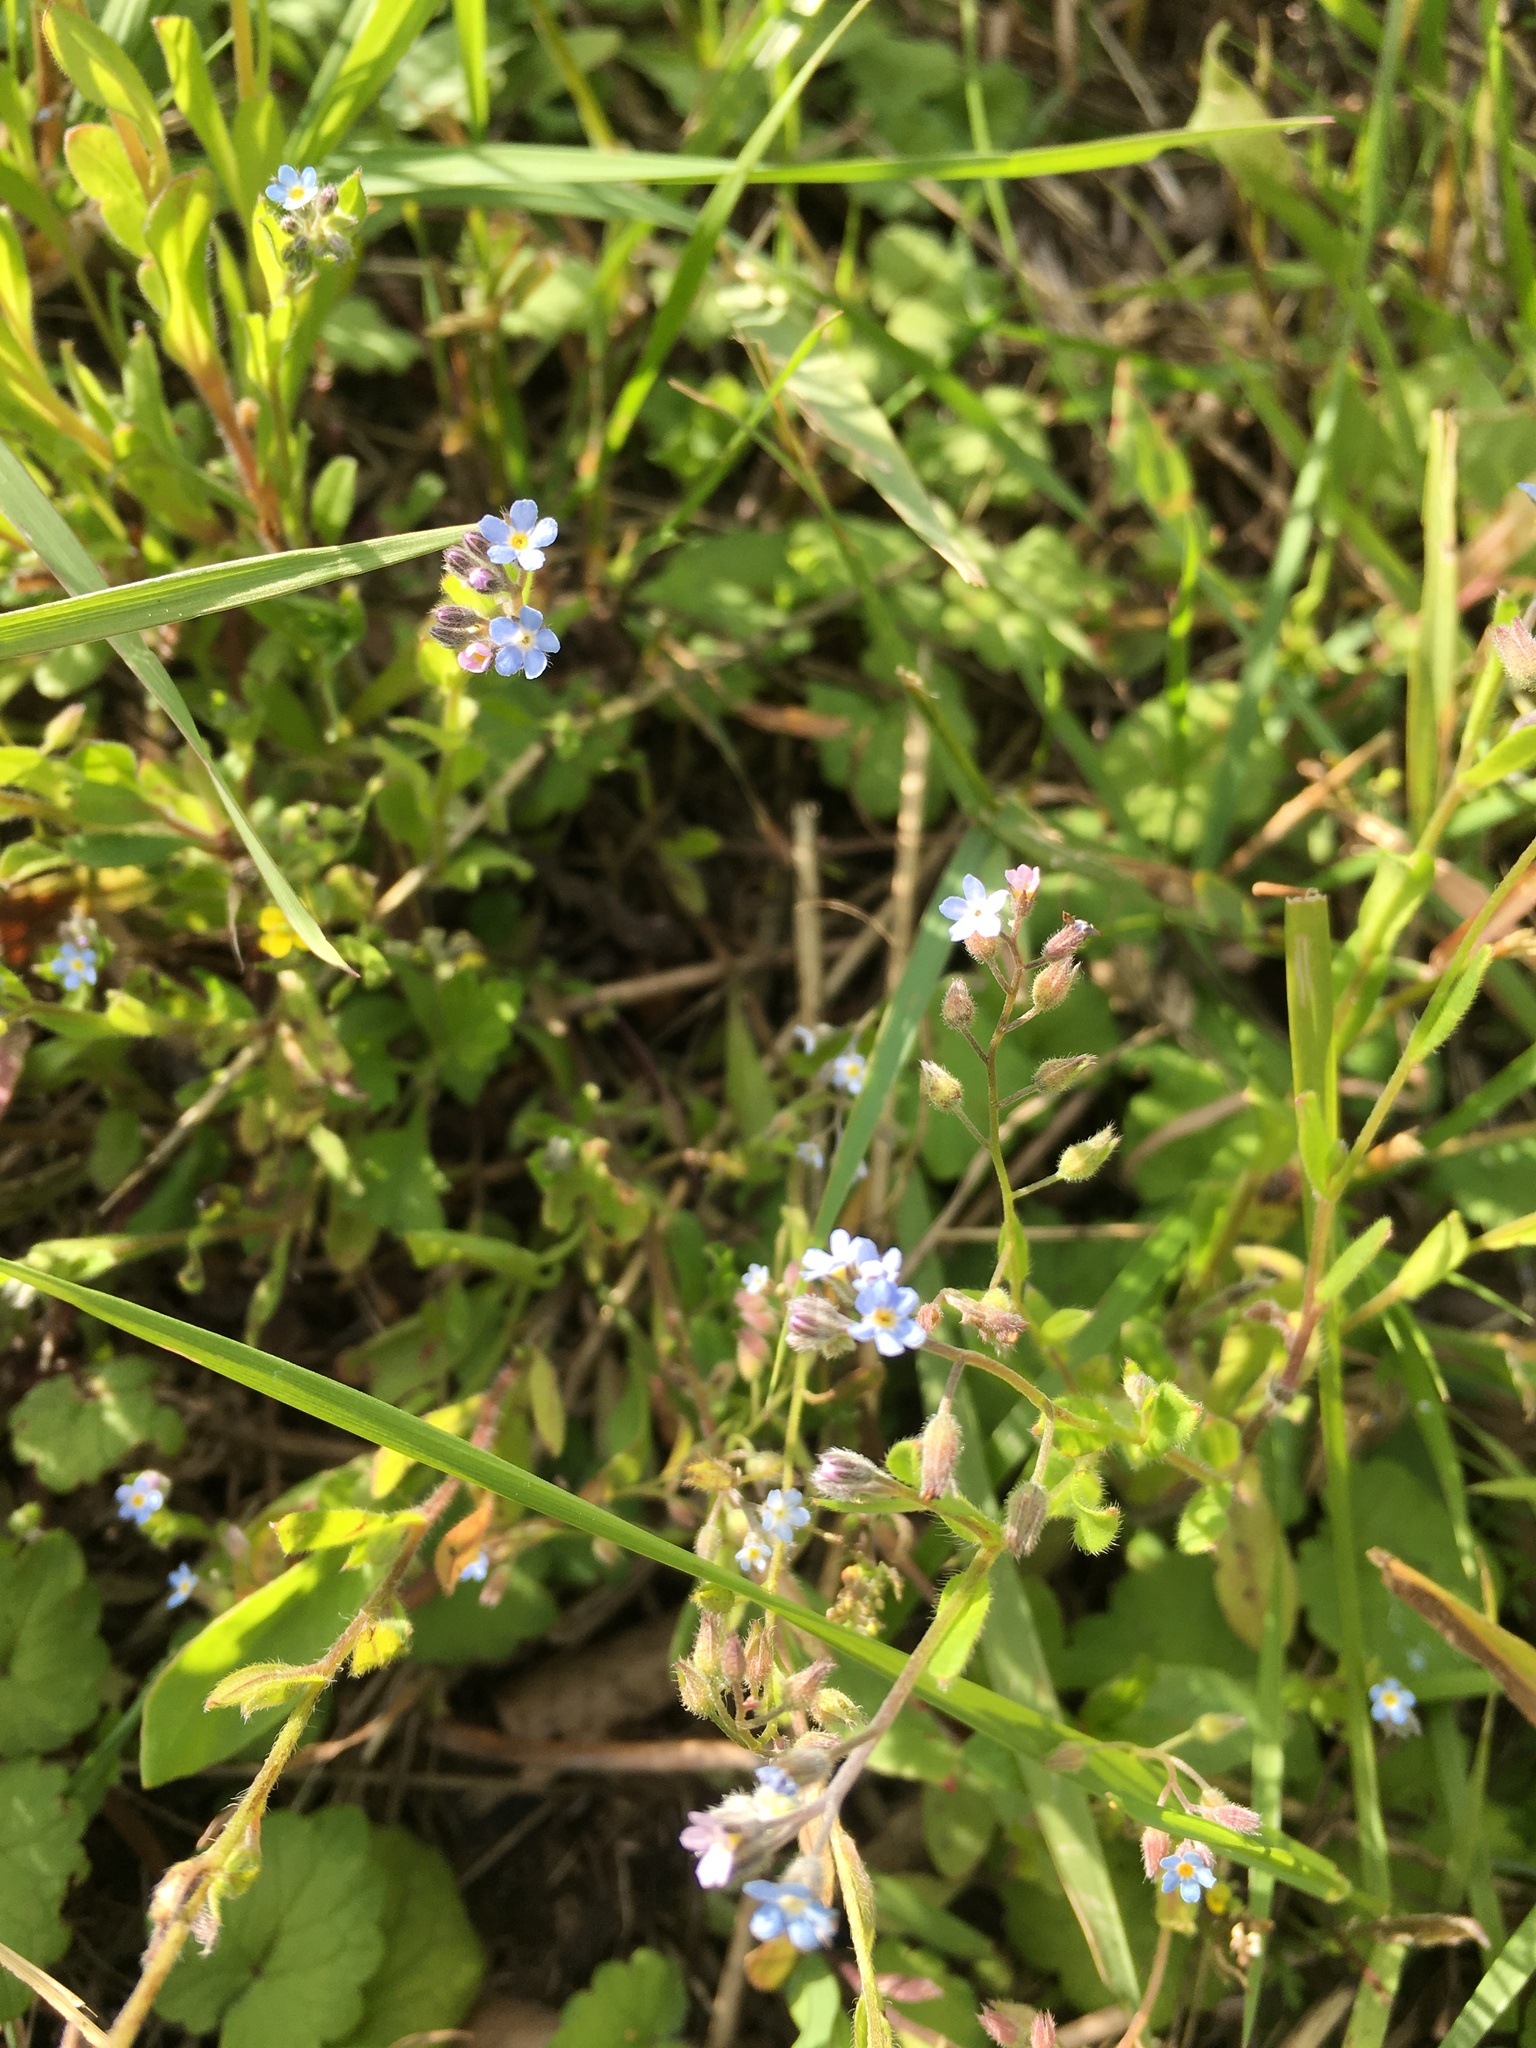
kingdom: Plantae
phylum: Tracheophyta
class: Magnoliopsida
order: Boraginales
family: Boraginaceae
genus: Myosotis
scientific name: Myosotis arvensis
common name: Field forget-me-not
